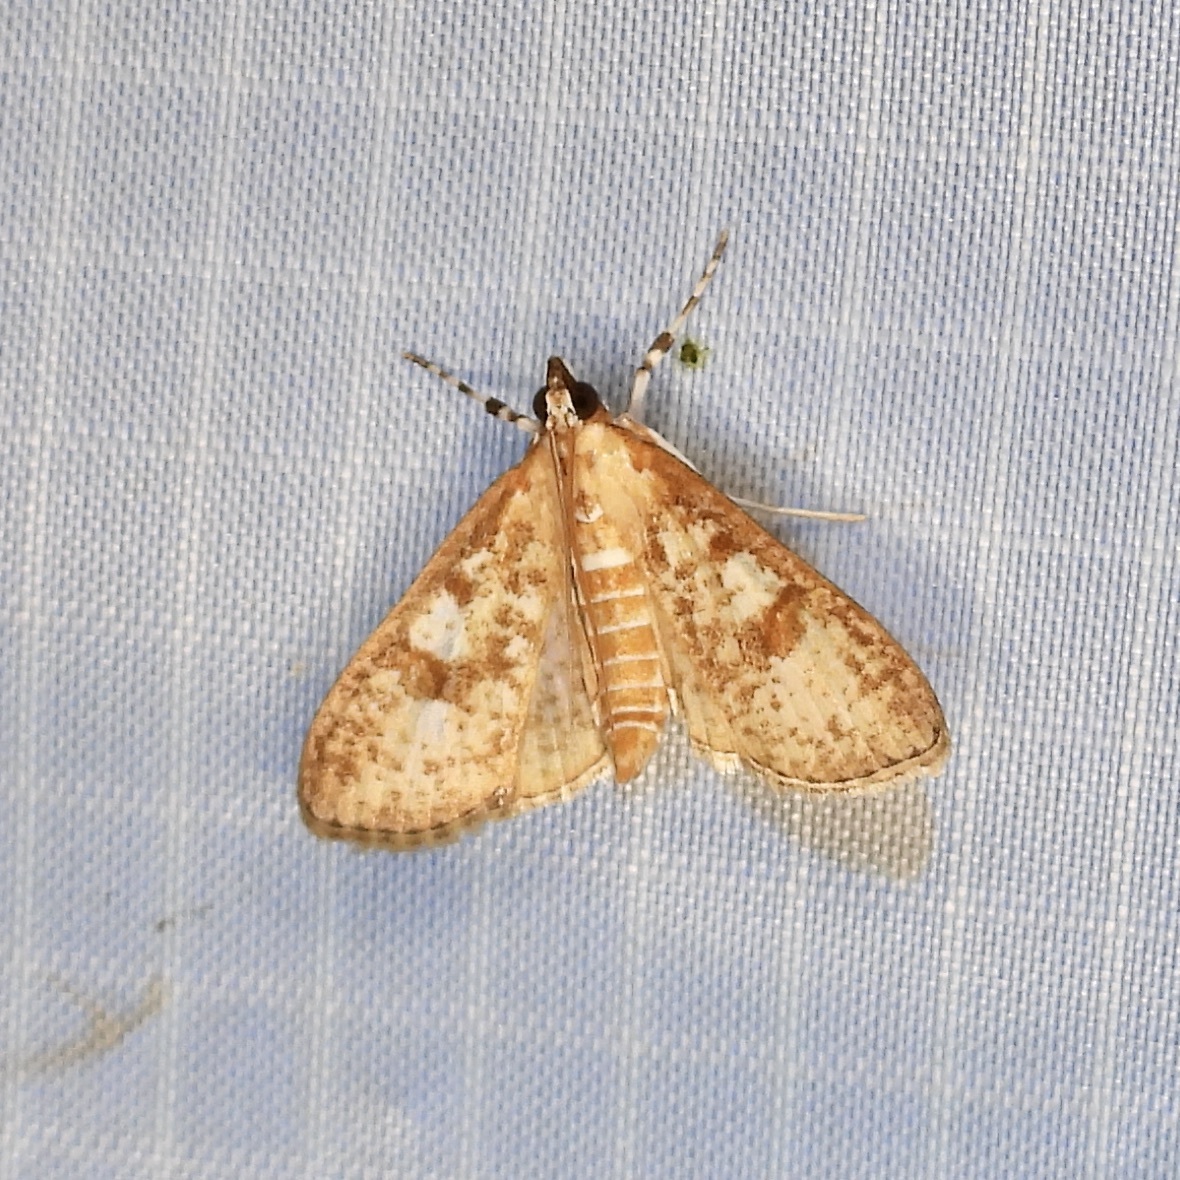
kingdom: Animalia
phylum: Arthropoda
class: Insecta
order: Lepidoptera
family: Crambidae
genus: Palpita
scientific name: Palpita freemanalis
